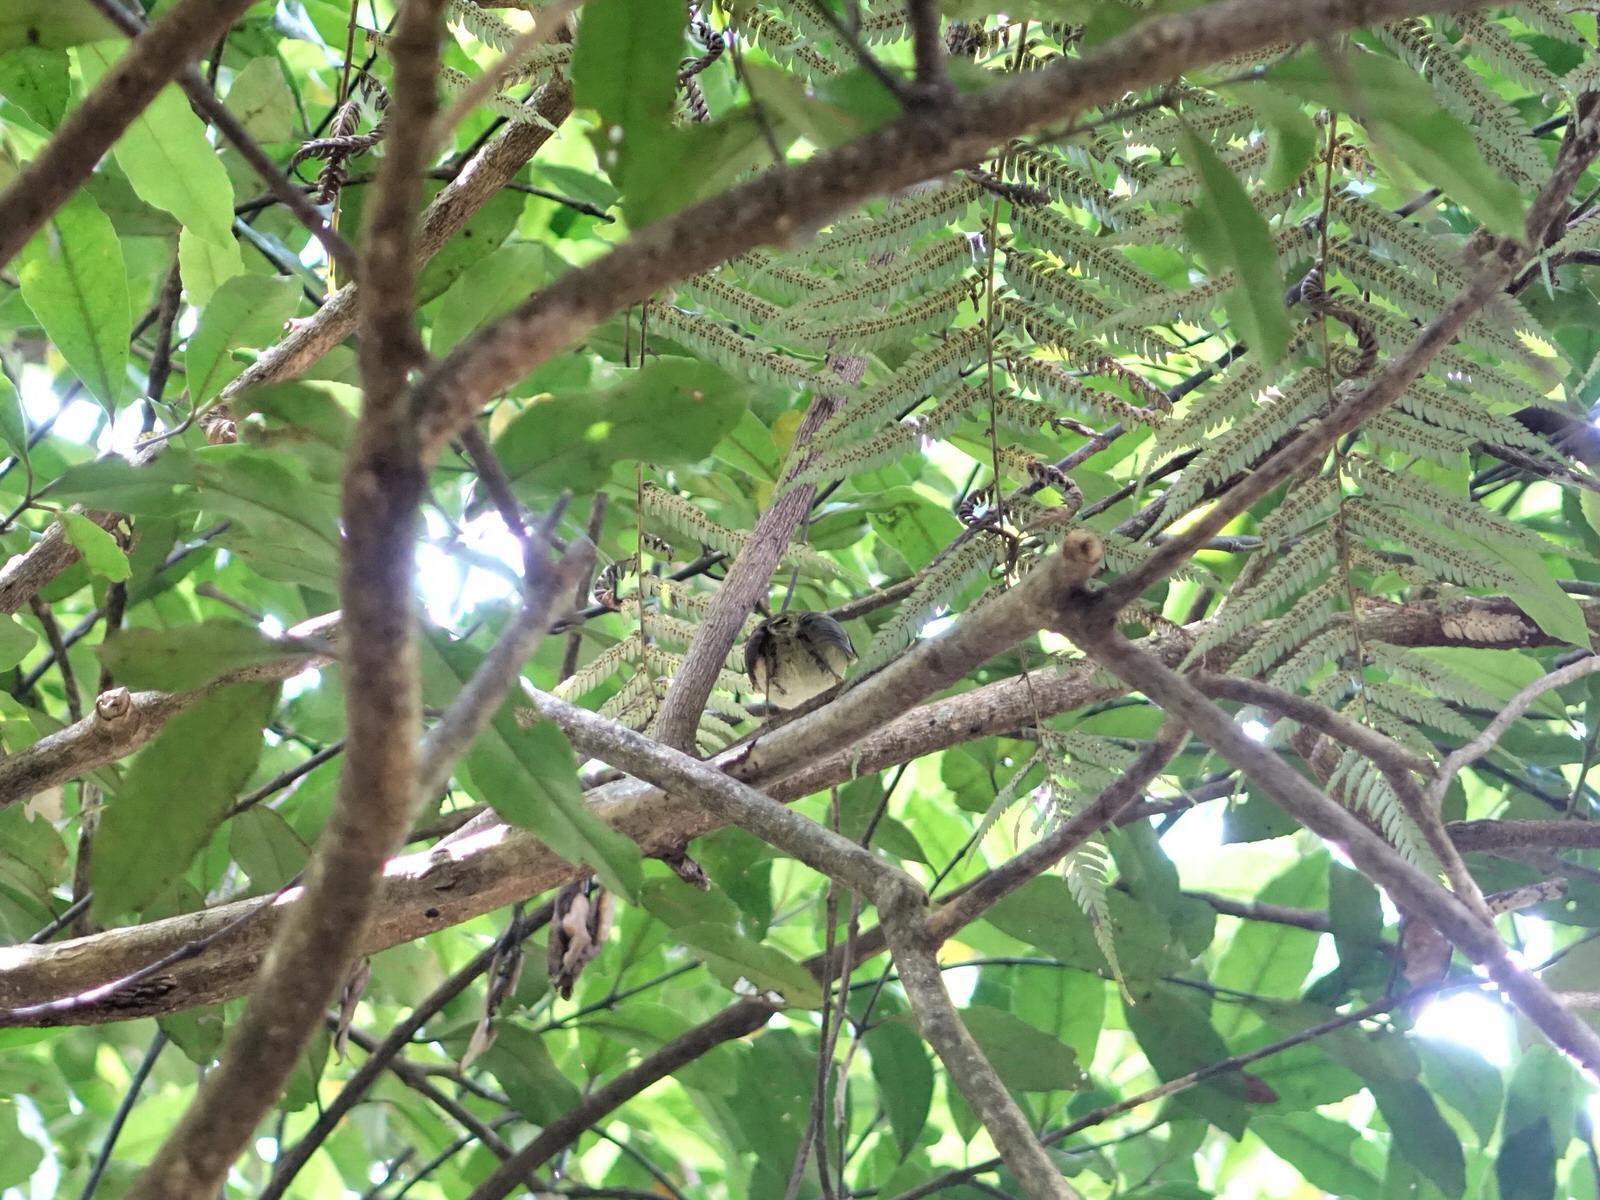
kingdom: Animalia
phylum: Chordata
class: Aves
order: Passeriformes
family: Acanthisittidae
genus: Acanthisitta
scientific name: Acanthisitta chloris
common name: Rifleman
